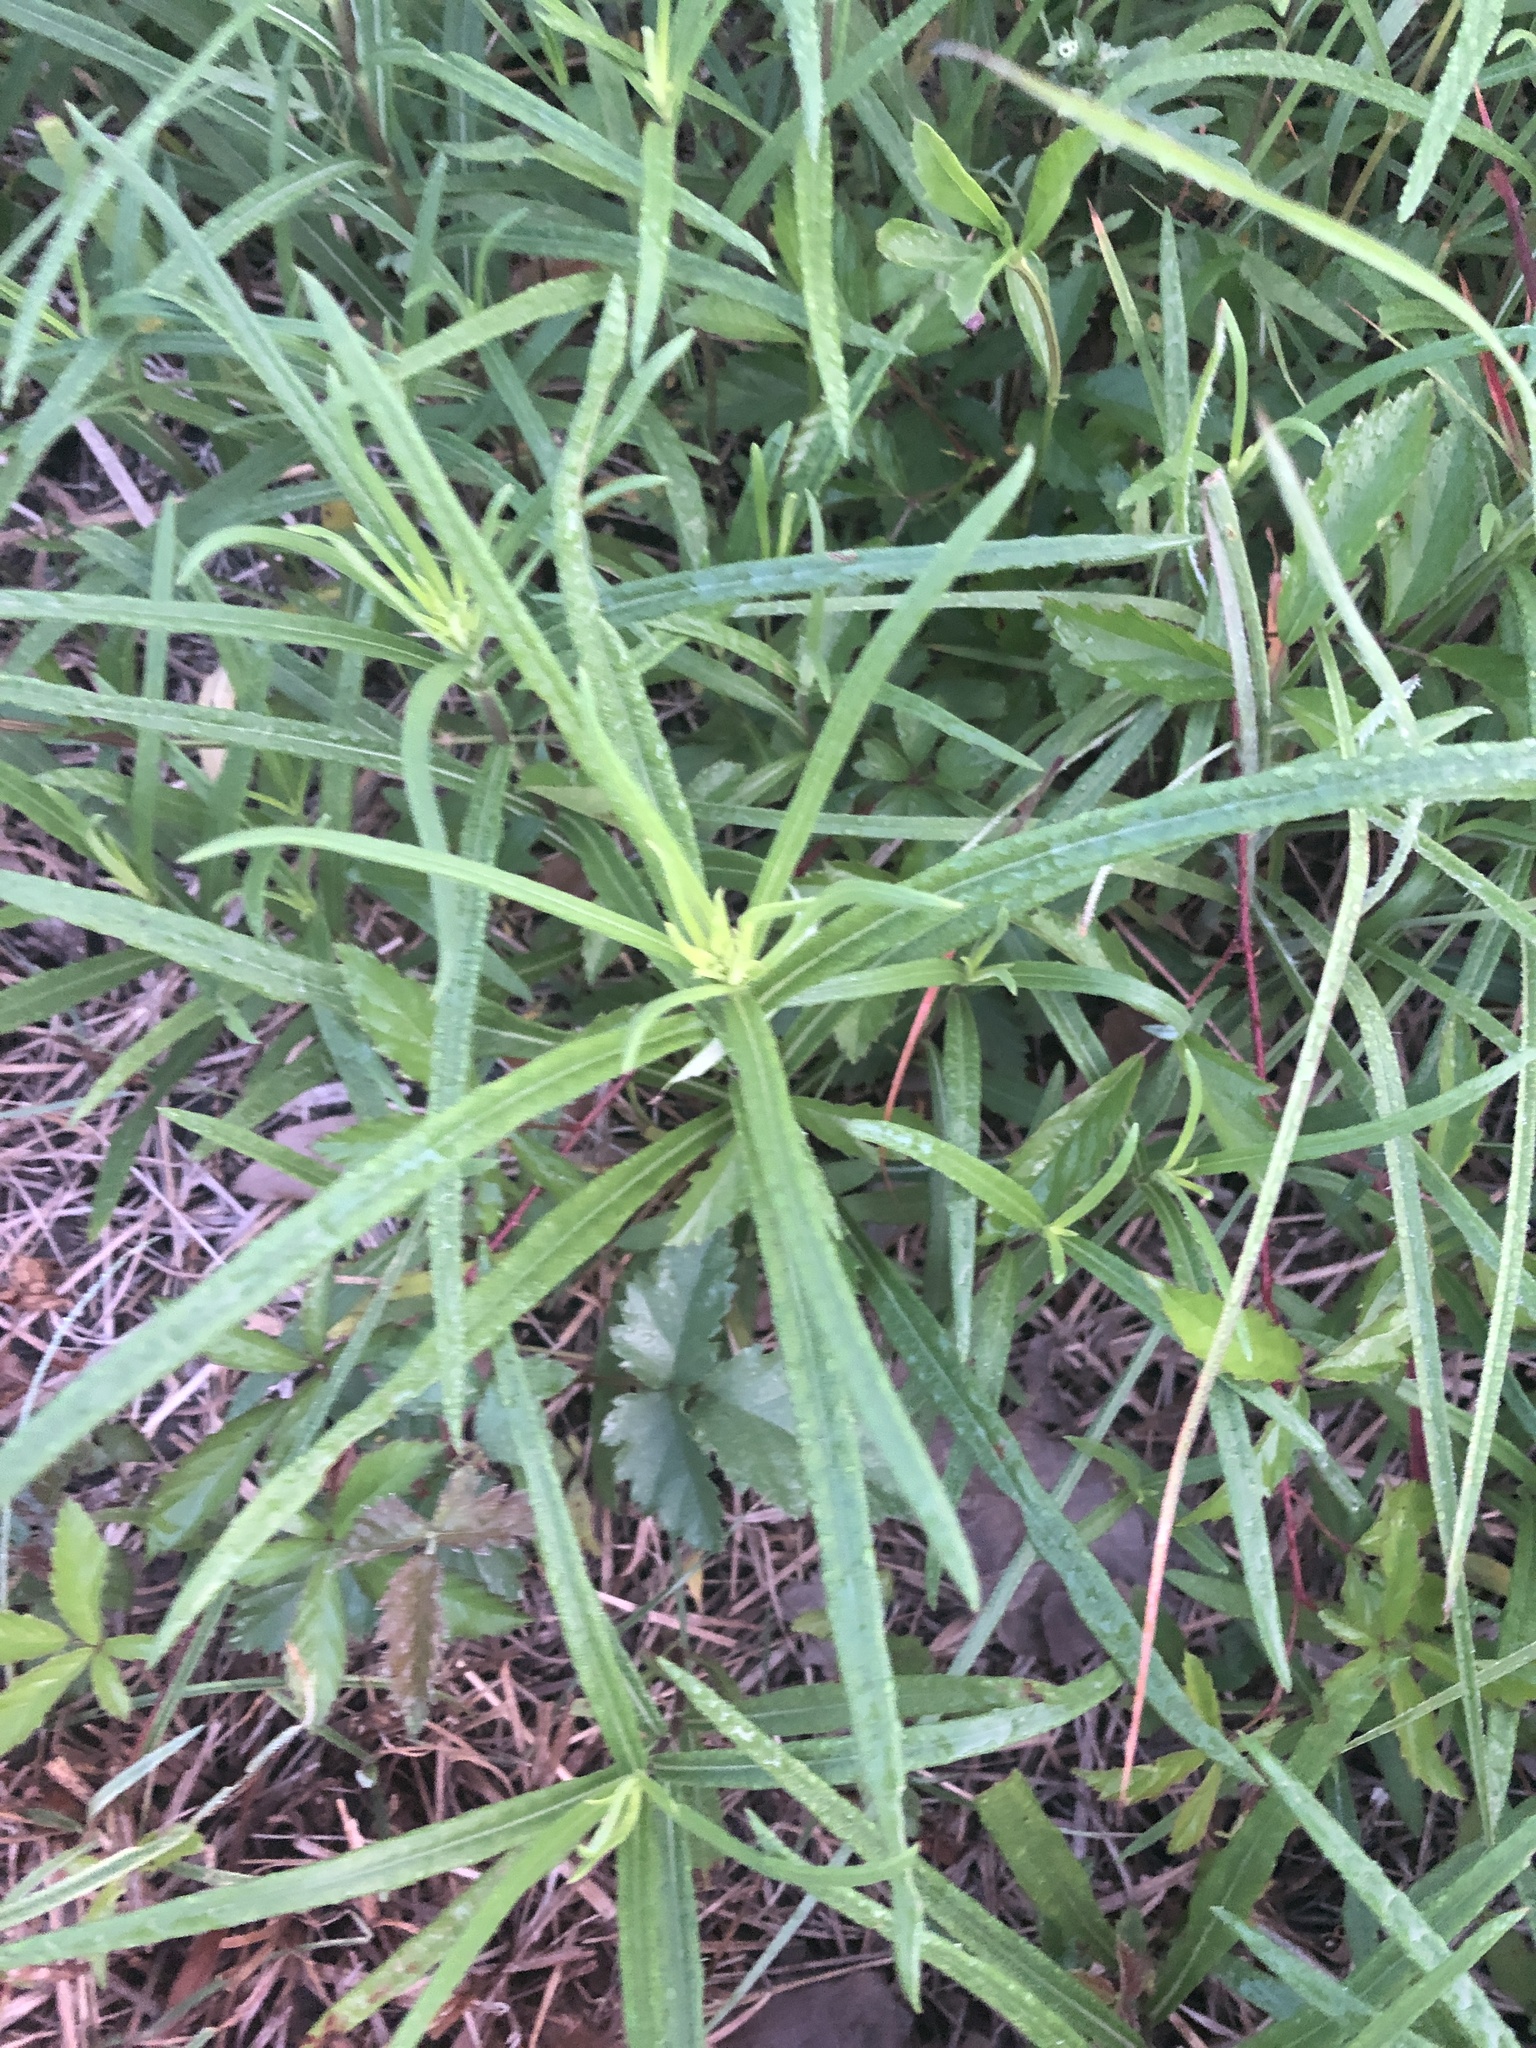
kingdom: Plantae
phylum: Tracheophyta
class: Magnoliopsida
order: Asterales
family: Asteraceae
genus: Helianthus
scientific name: Helianthus angustifolius
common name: Swamp sunflower
